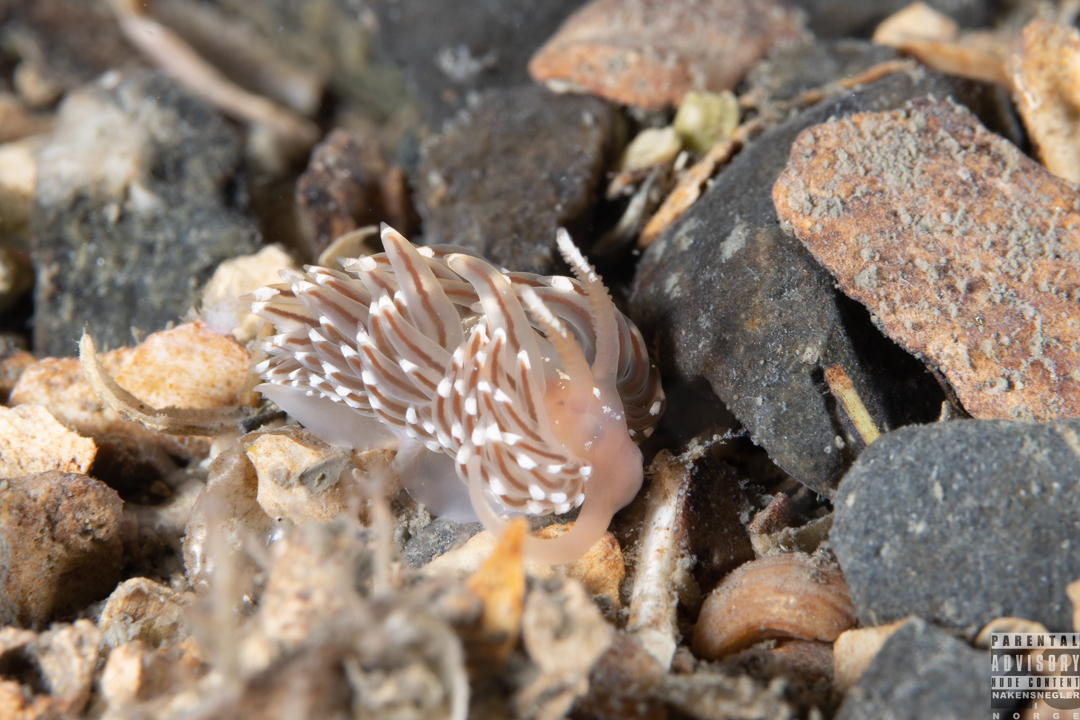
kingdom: Animalia
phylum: Mollusca
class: Gastropoda
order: Nudibranchia
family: Facelinidae
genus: Facelina
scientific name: Facelina bostoniensis
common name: Boston facelina
